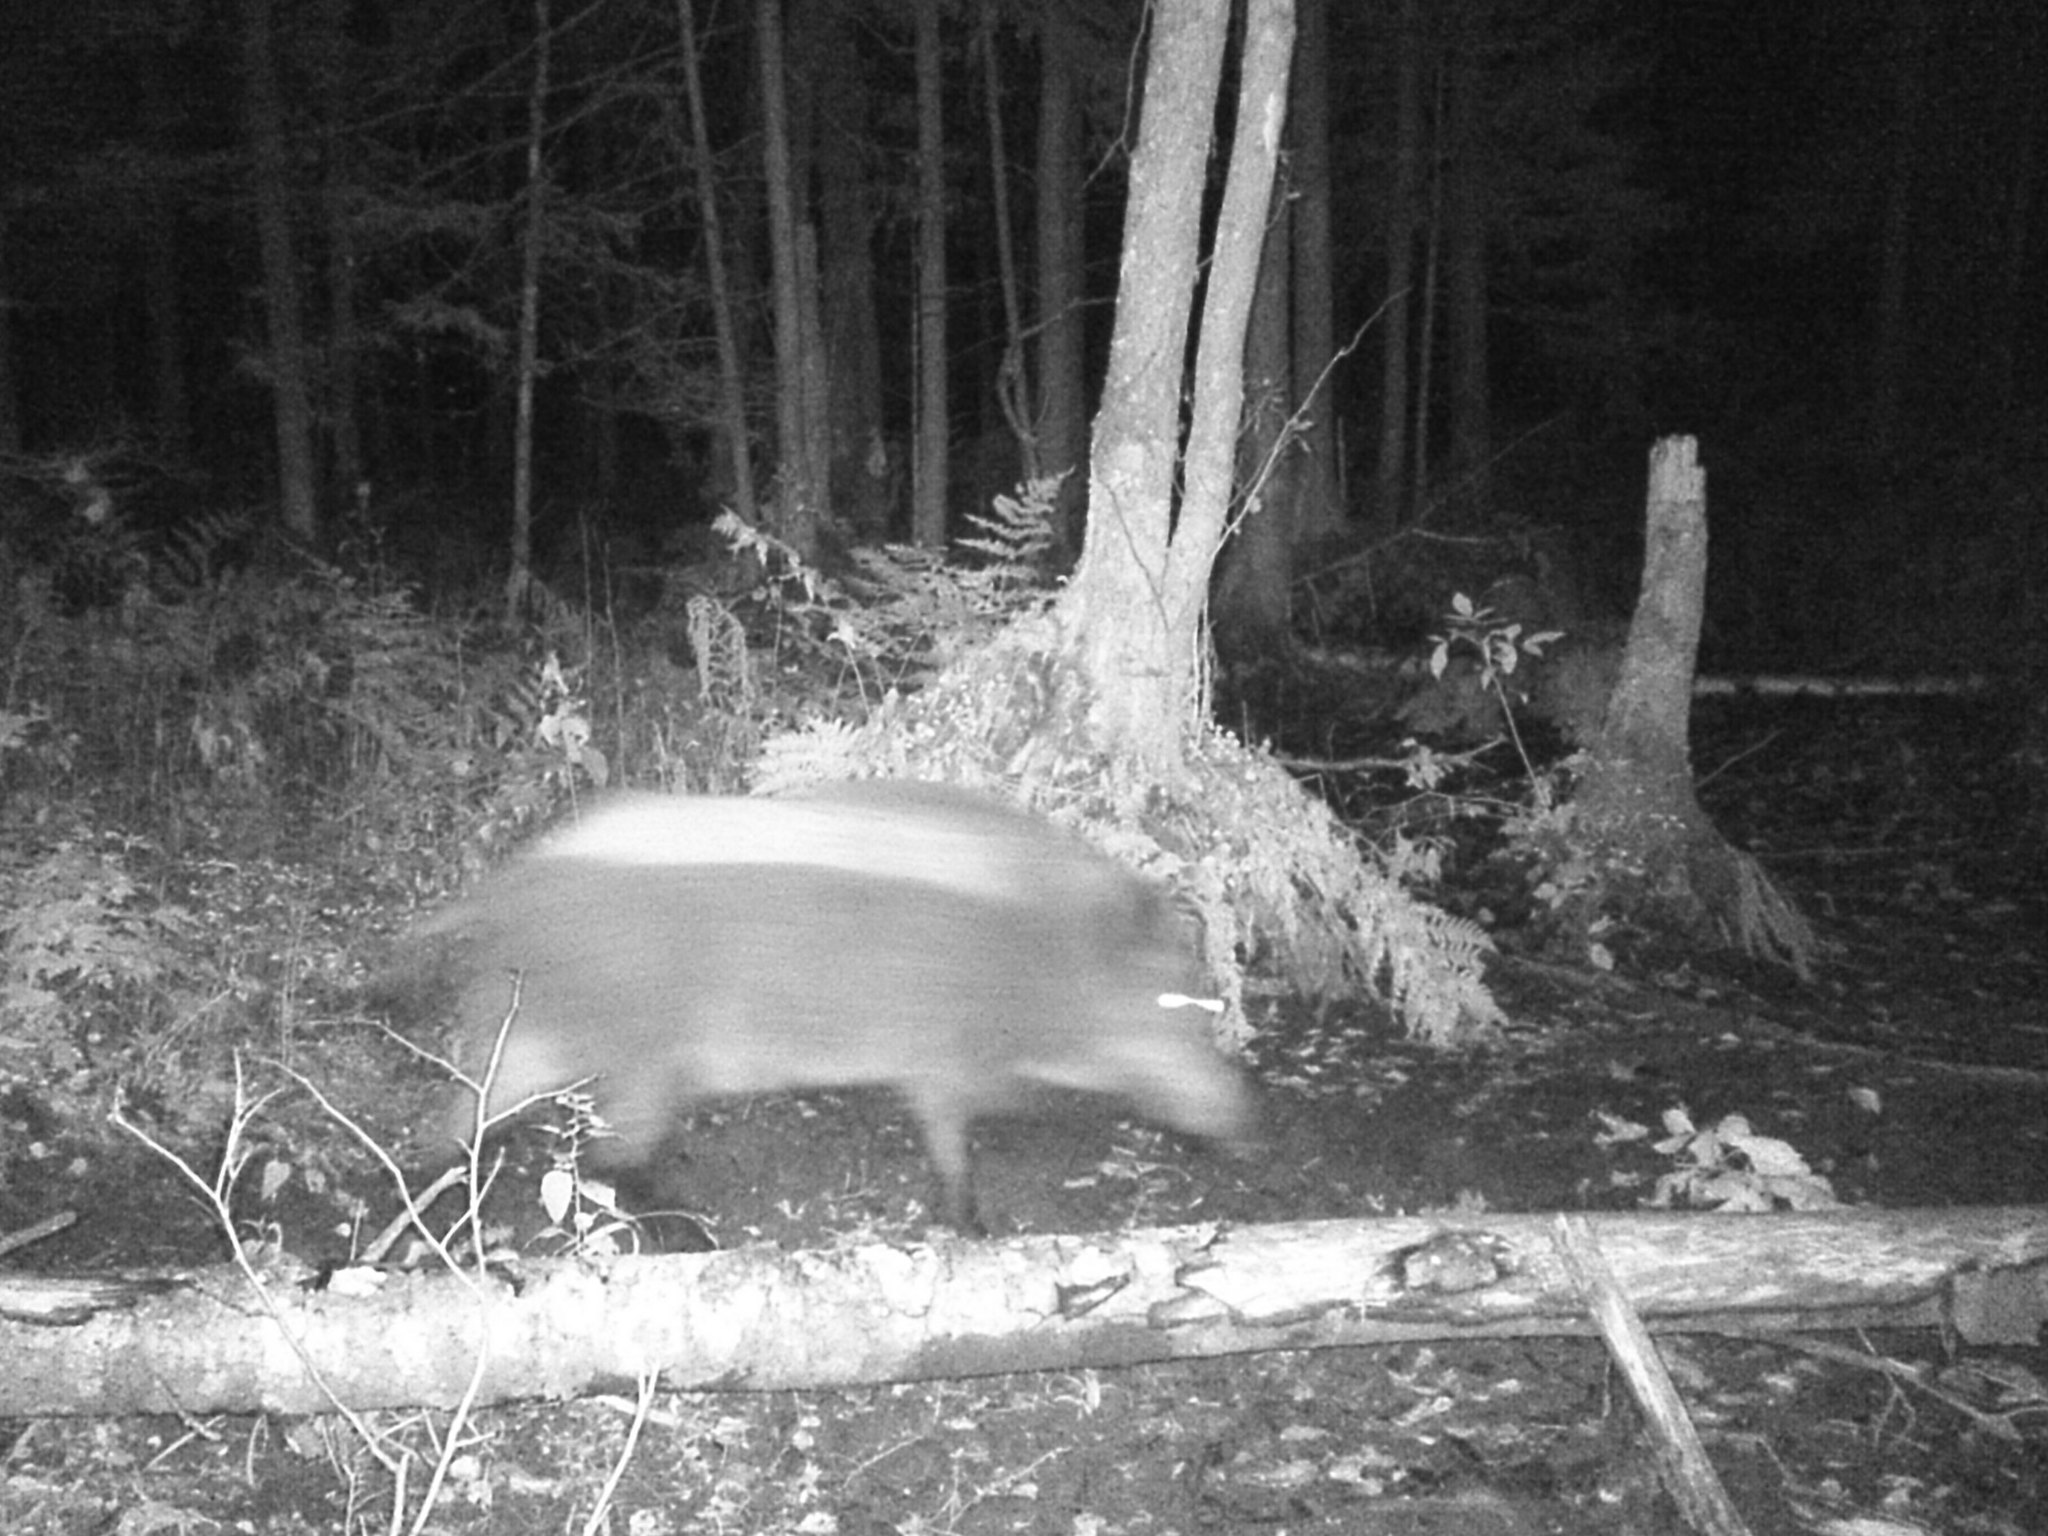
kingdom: Animalia
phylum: Chordata
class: Mammalia
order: Artiodactyla
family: Suidae
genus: Sus
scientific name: Sus scrofa
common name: Wild boar
